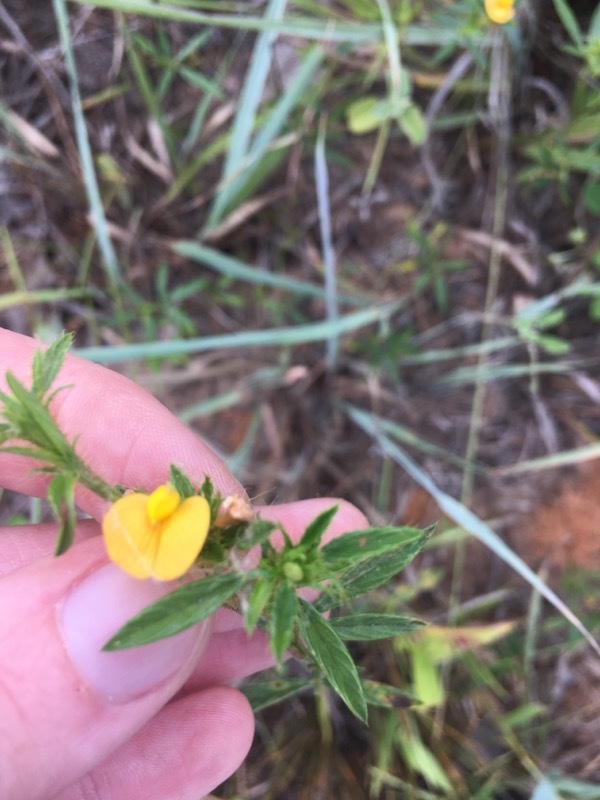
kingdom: Plantae
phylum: Tracheophyta
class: Magnoliopsida
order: Fabales
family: Fabaceae
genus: Stylosanthes
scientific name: Stylosanthes biflora
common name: Two-flower pencil-flower
